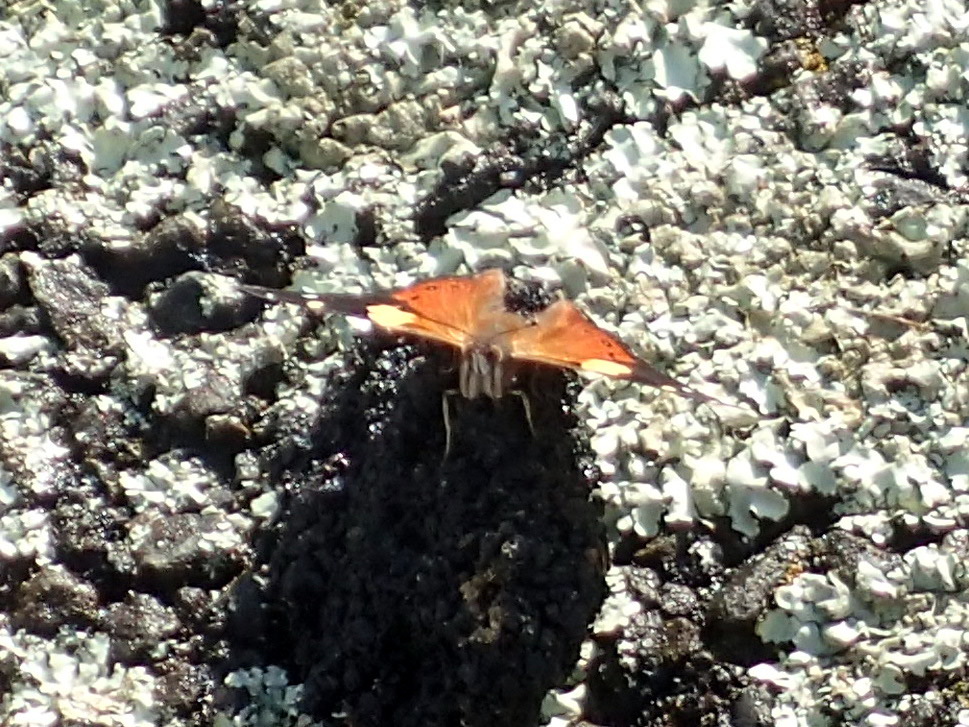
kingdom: Animalia
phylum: Arthropoda
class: Insecta
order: Lepidoptera
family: Nymphalidae
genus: Vanessa
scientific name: Vanessa itea
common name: Yellow admiral
